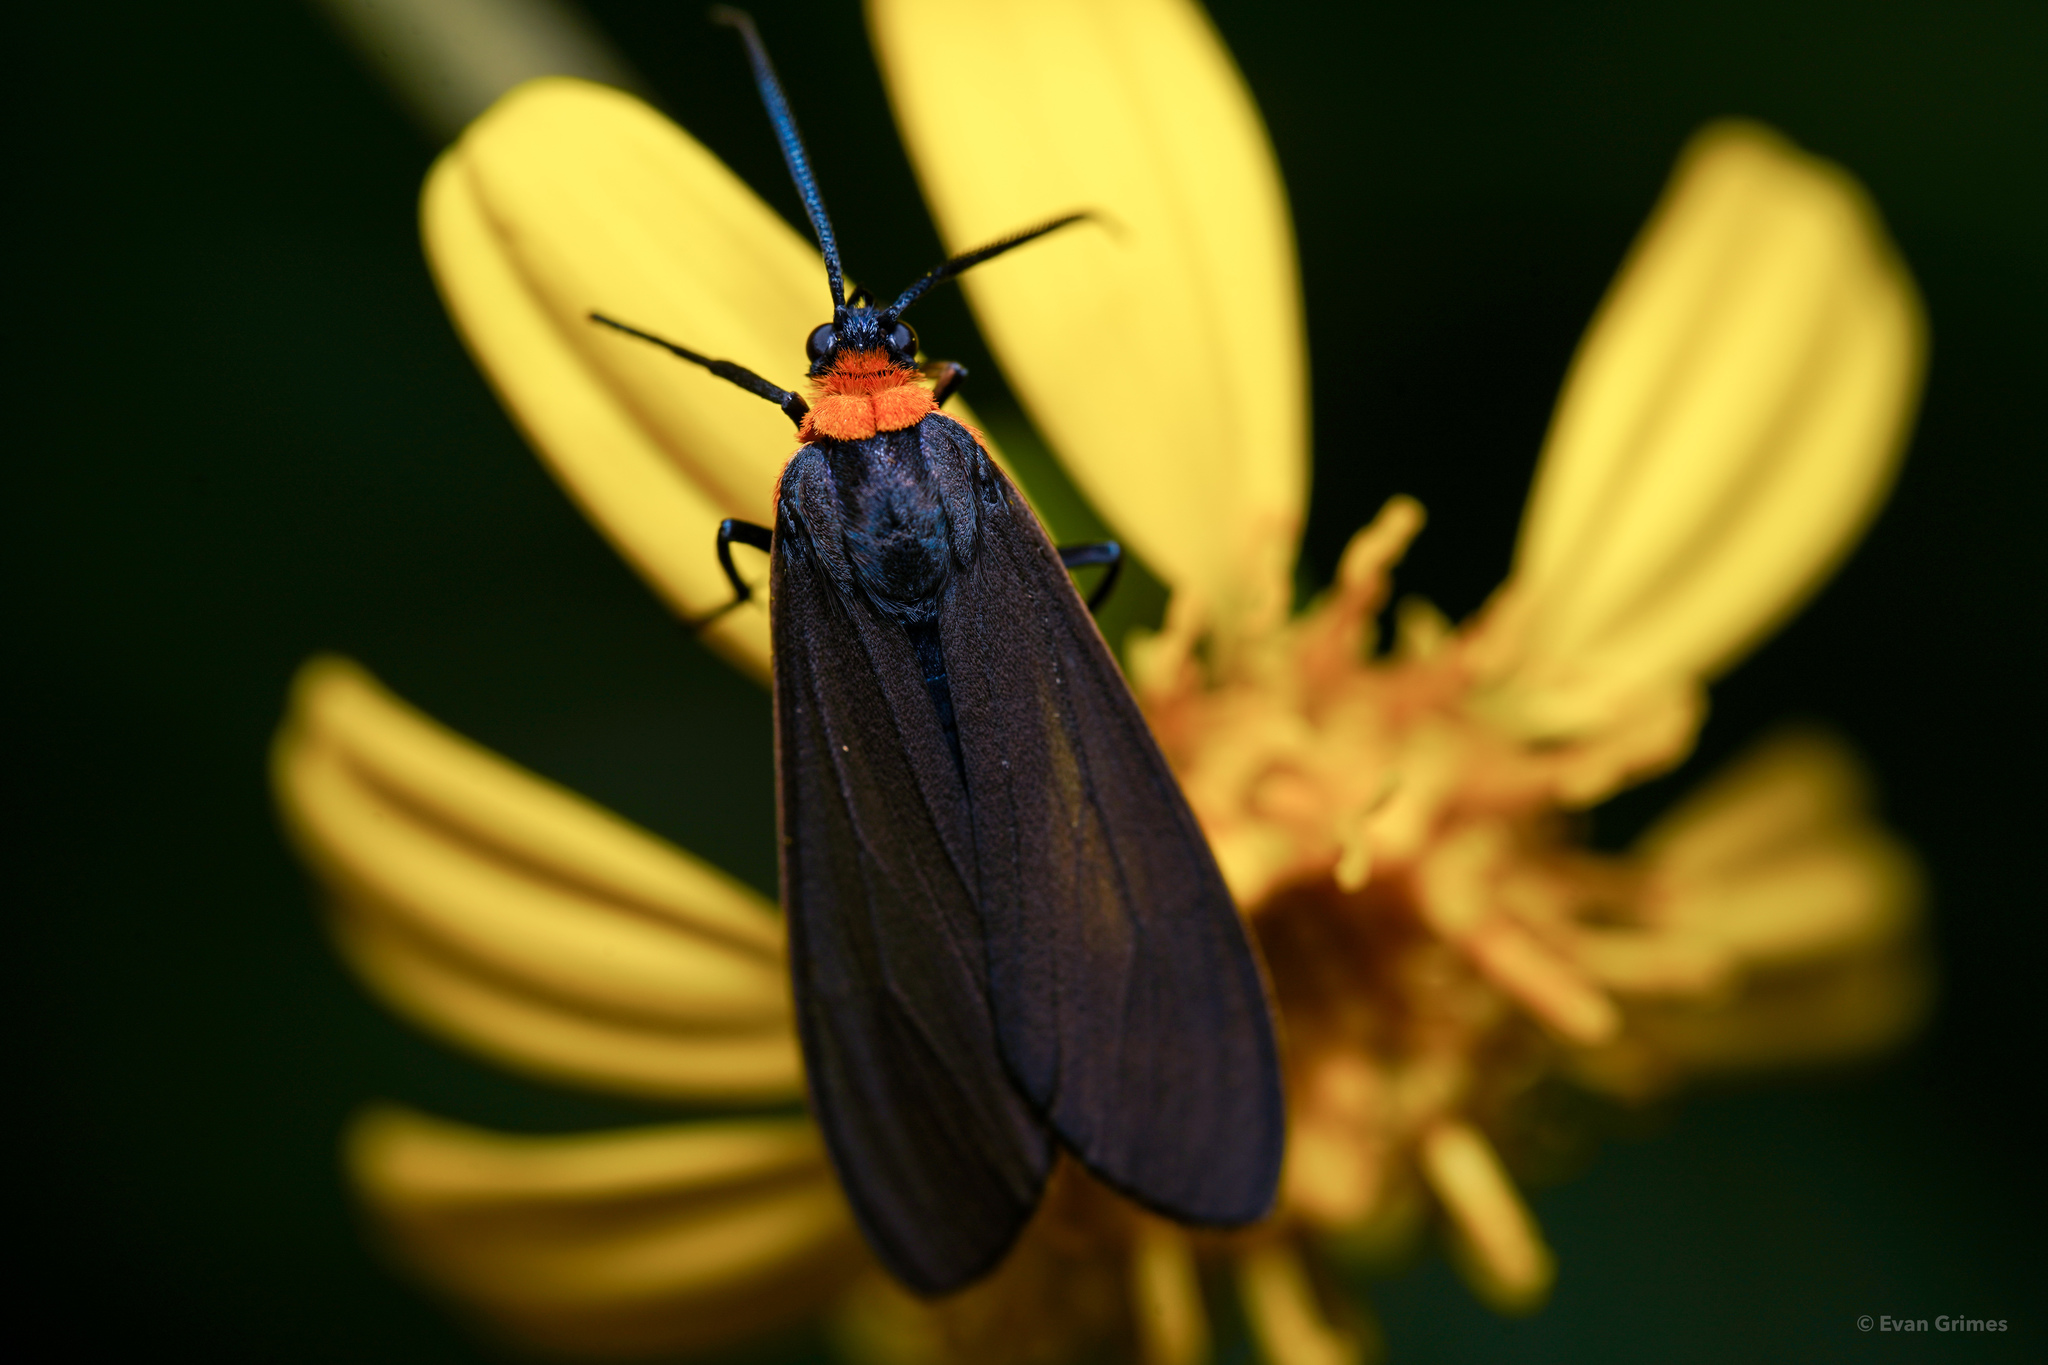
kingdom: Animalia
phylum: Arthropoda
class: Insecta
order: Lepidoptera
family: Erebidae
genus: Cisseps
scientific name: Cisseps fulvicollis
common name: Yellow-collared scape moth
